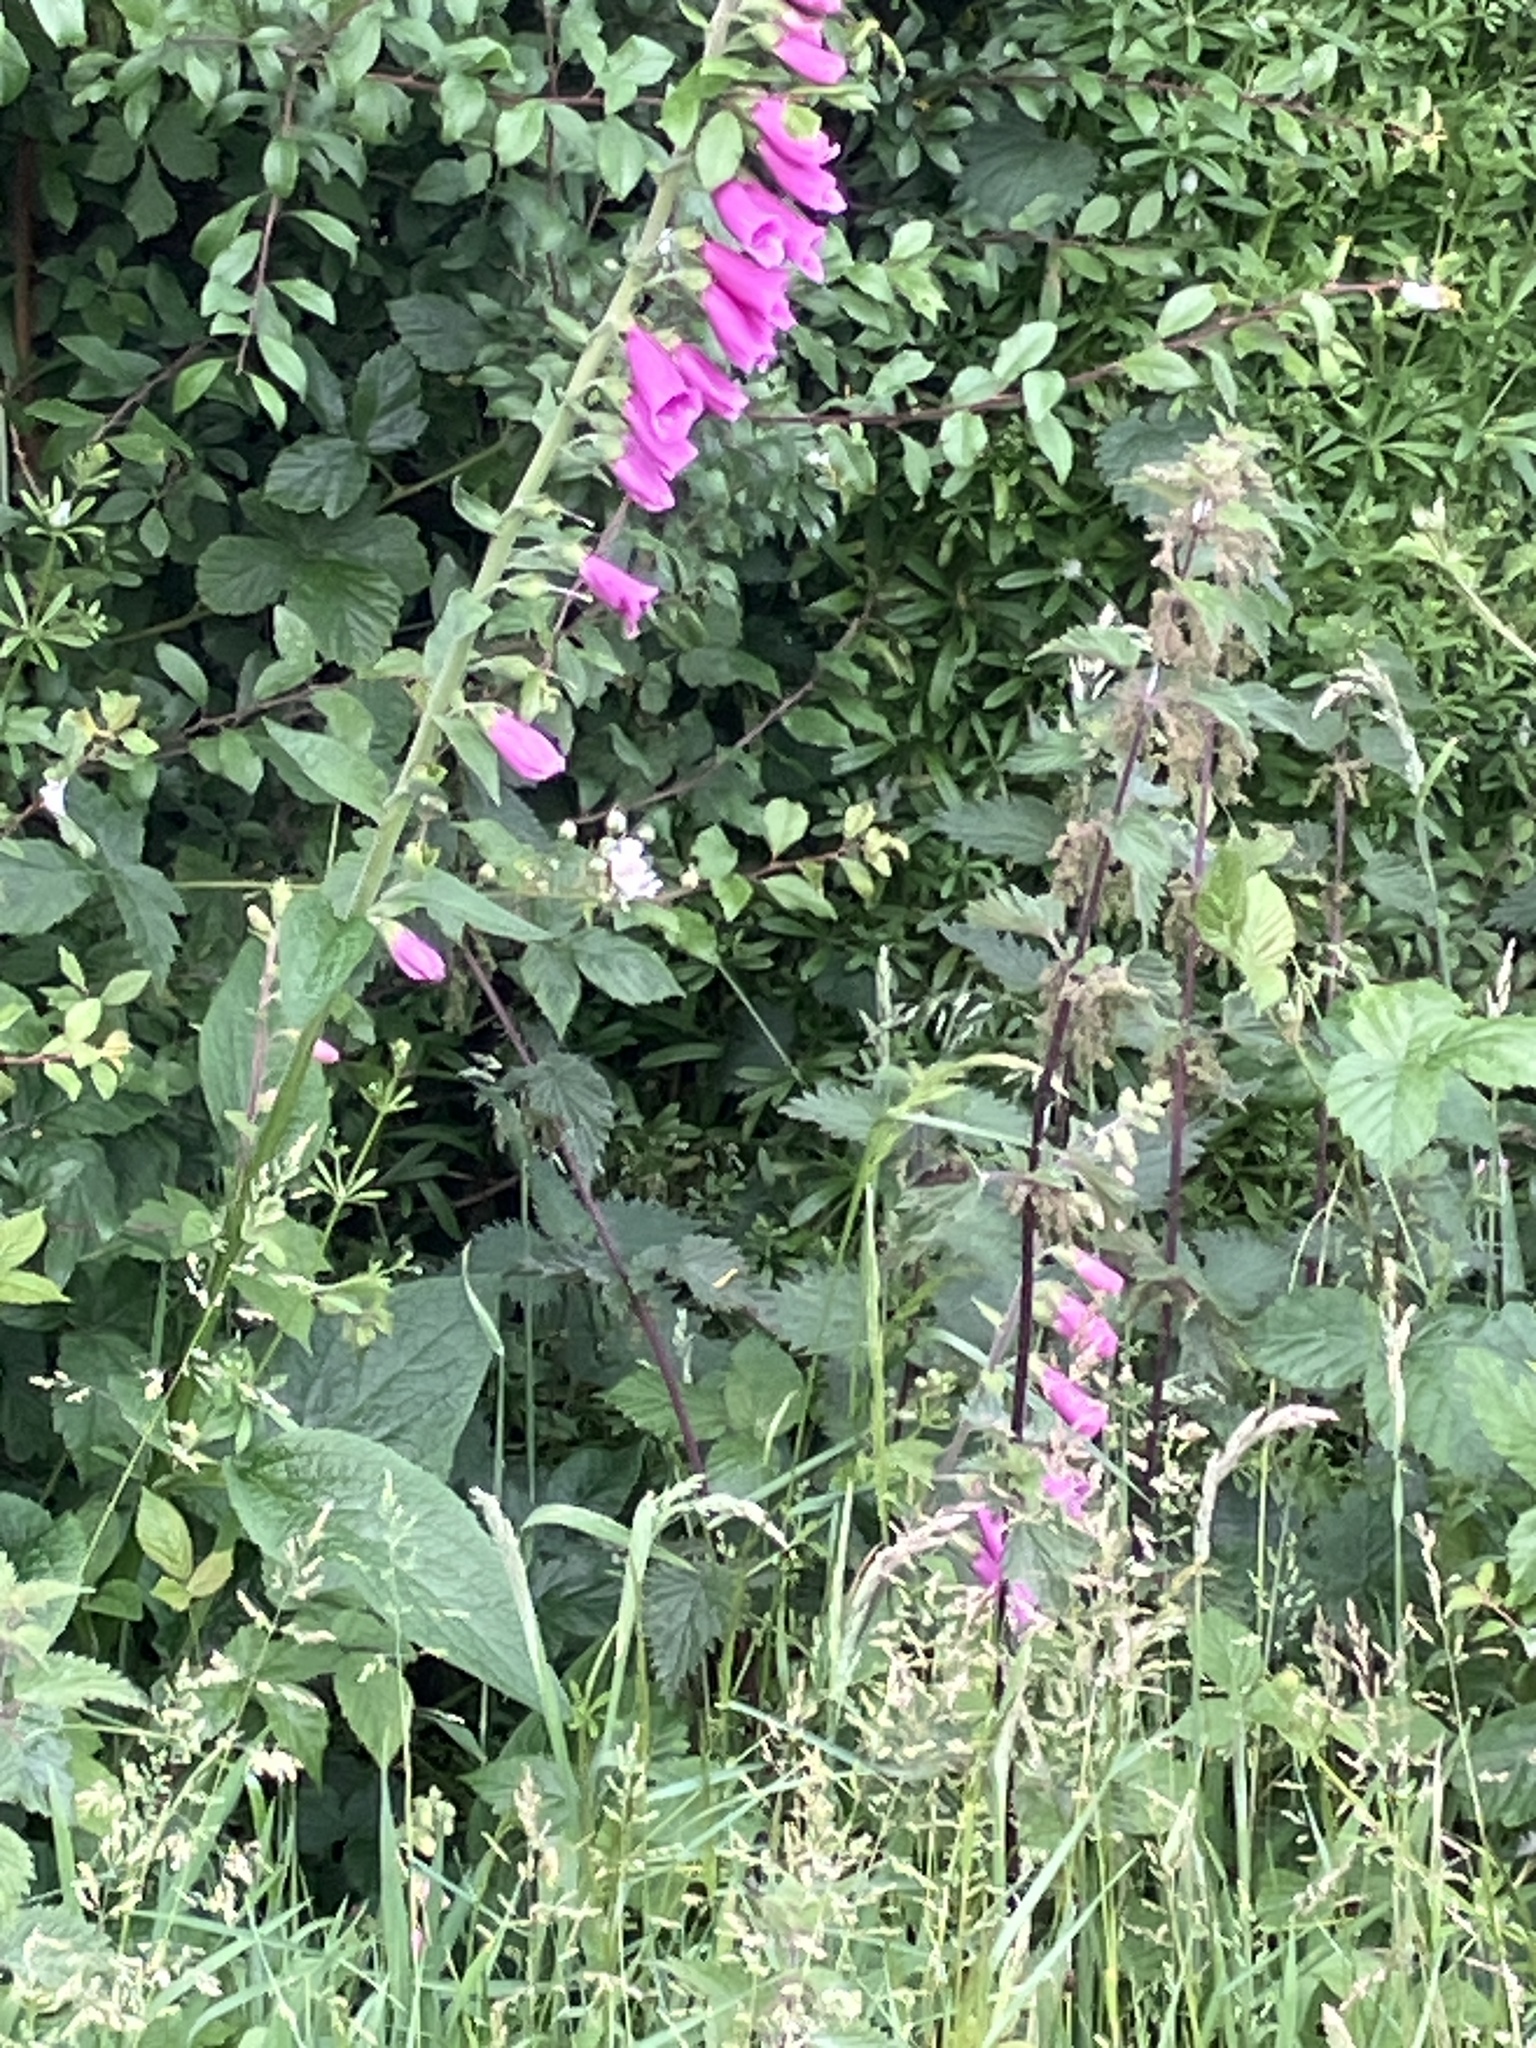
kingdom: Plantae
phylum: Tracheophyta
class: Magnoliopsida
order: Lamiales
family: Plantaginaceae
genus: Digitalis
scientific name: Digitalis purpurea
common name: Foxglove
